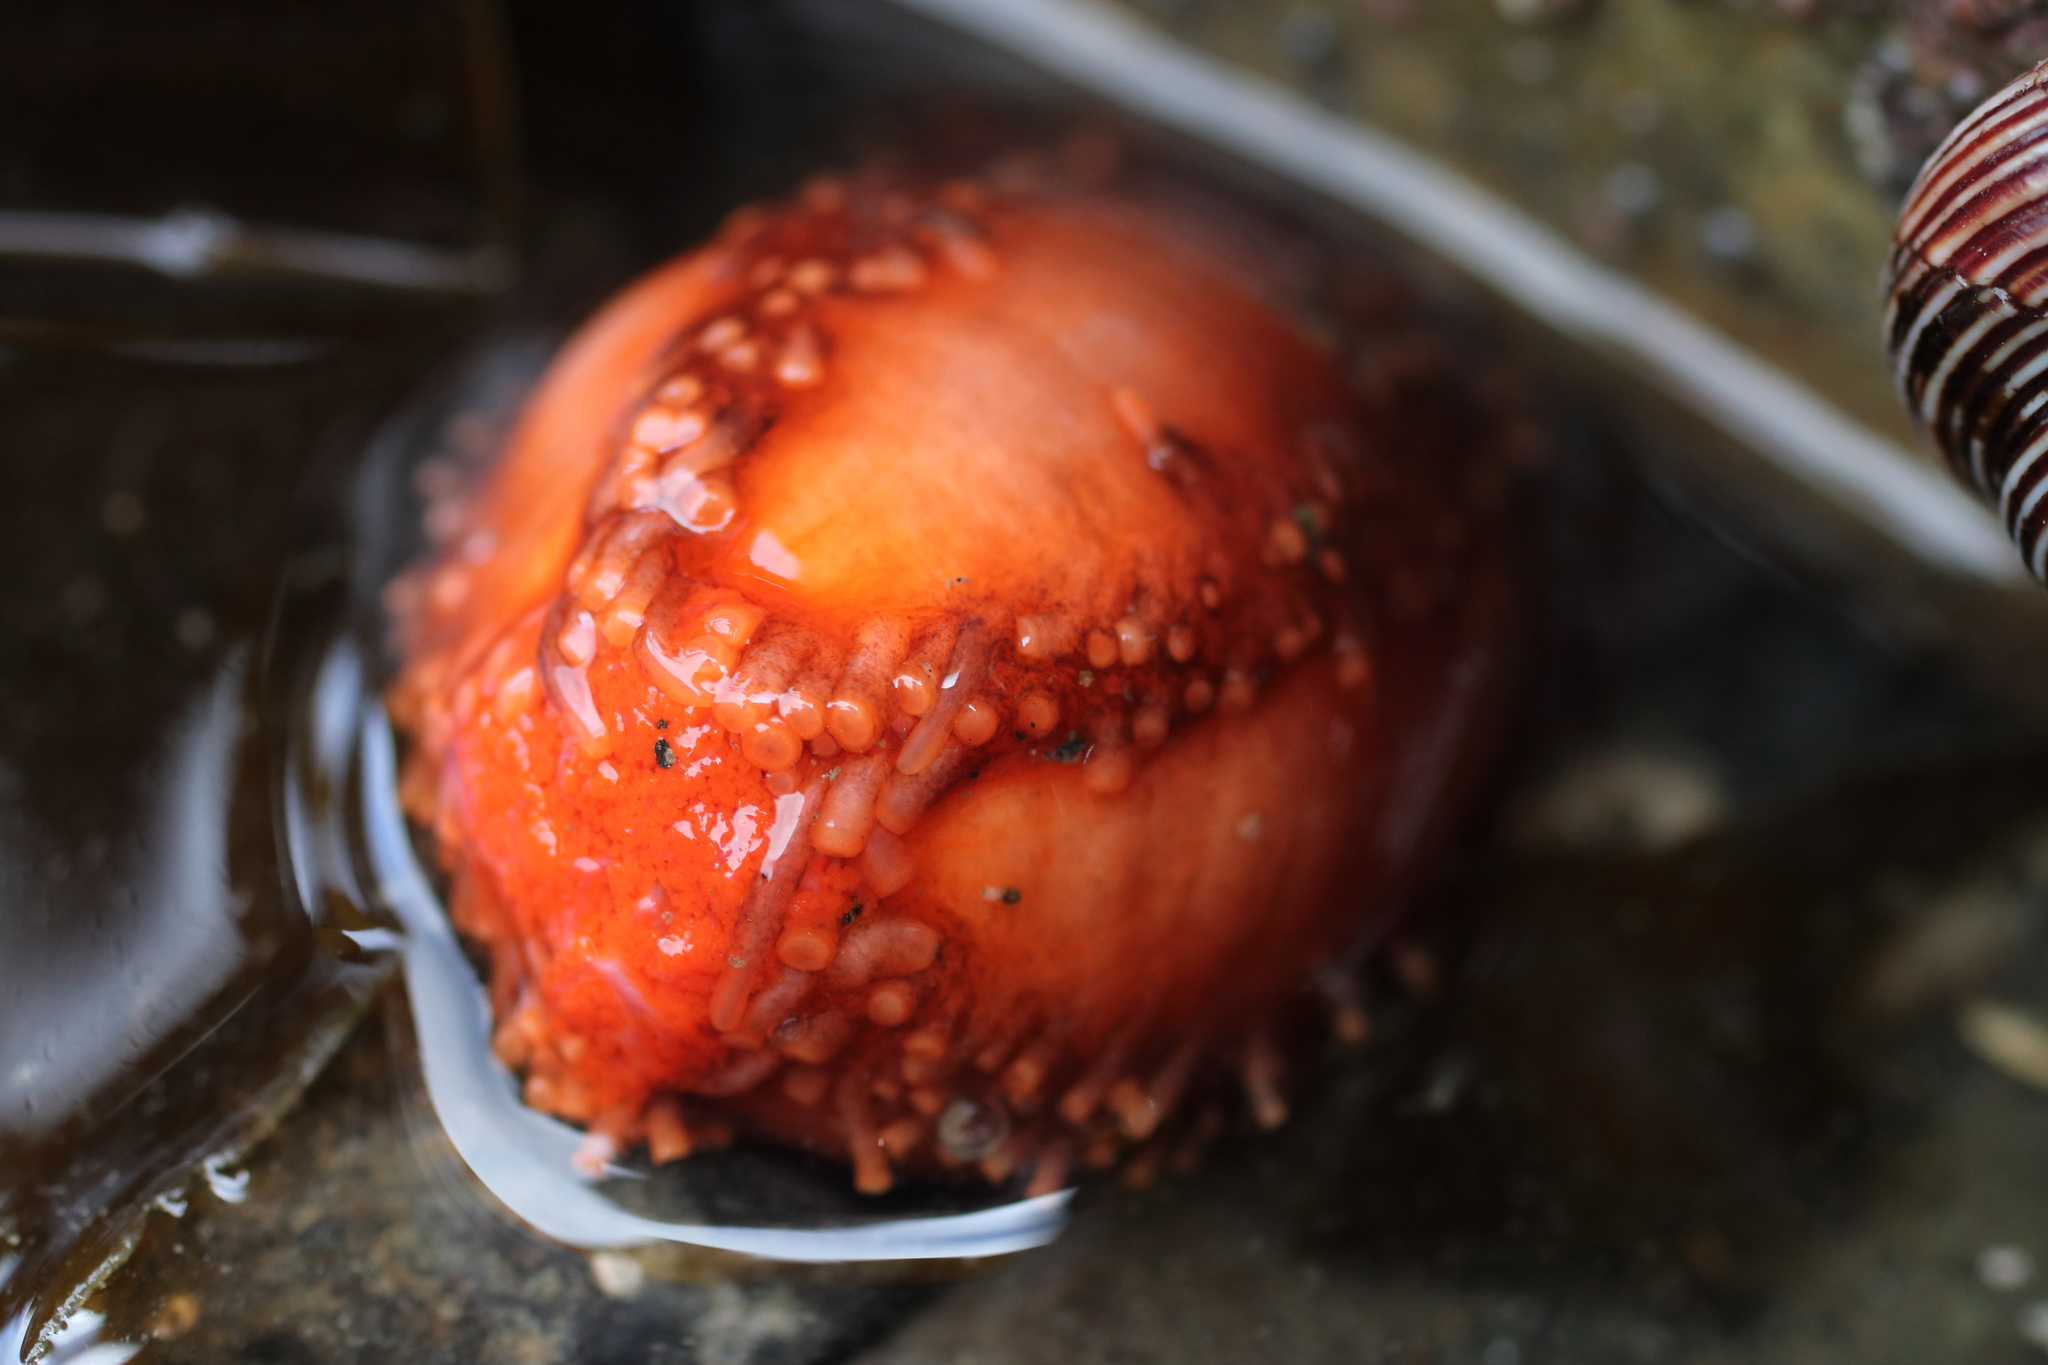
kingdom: Animalia
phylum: Echinodermata
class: Holothuroidea
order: Dendrochirotida
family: Cucumariidae
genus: Cucumaria
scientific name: Cucumaria miniata
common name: Orange sea cucumber
